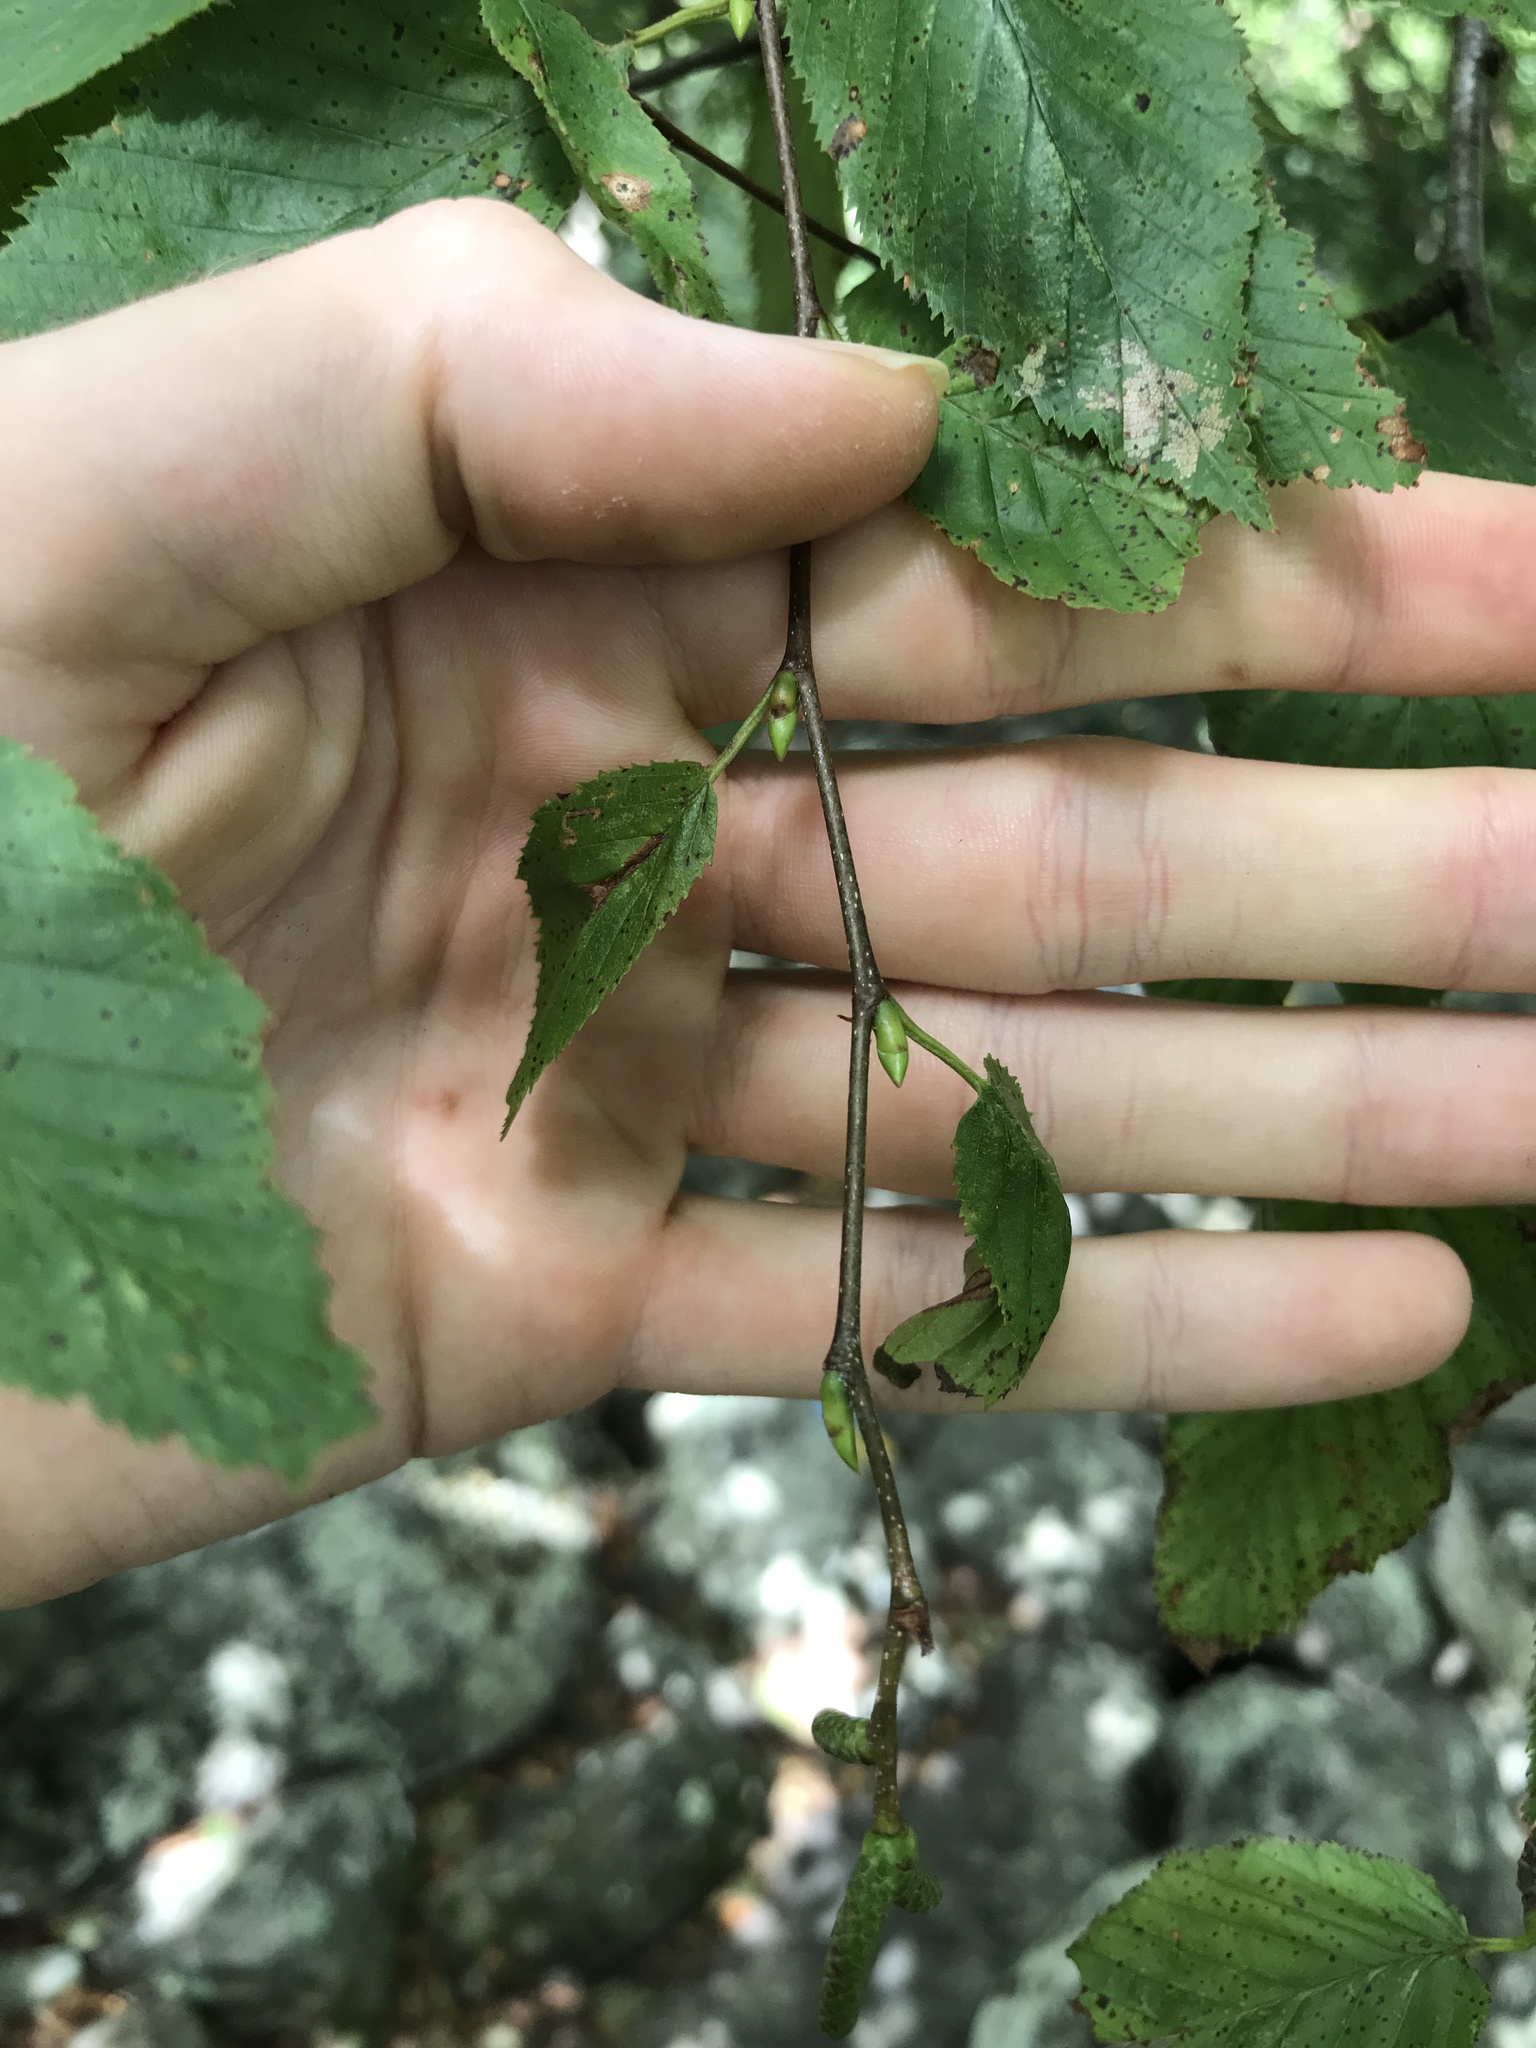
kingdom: Plantae
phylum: Tracheophyta
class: Magnoliopsida
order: Fagales
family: Betulaceae
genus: Betula
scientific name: Betula lenta
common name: Black birch
